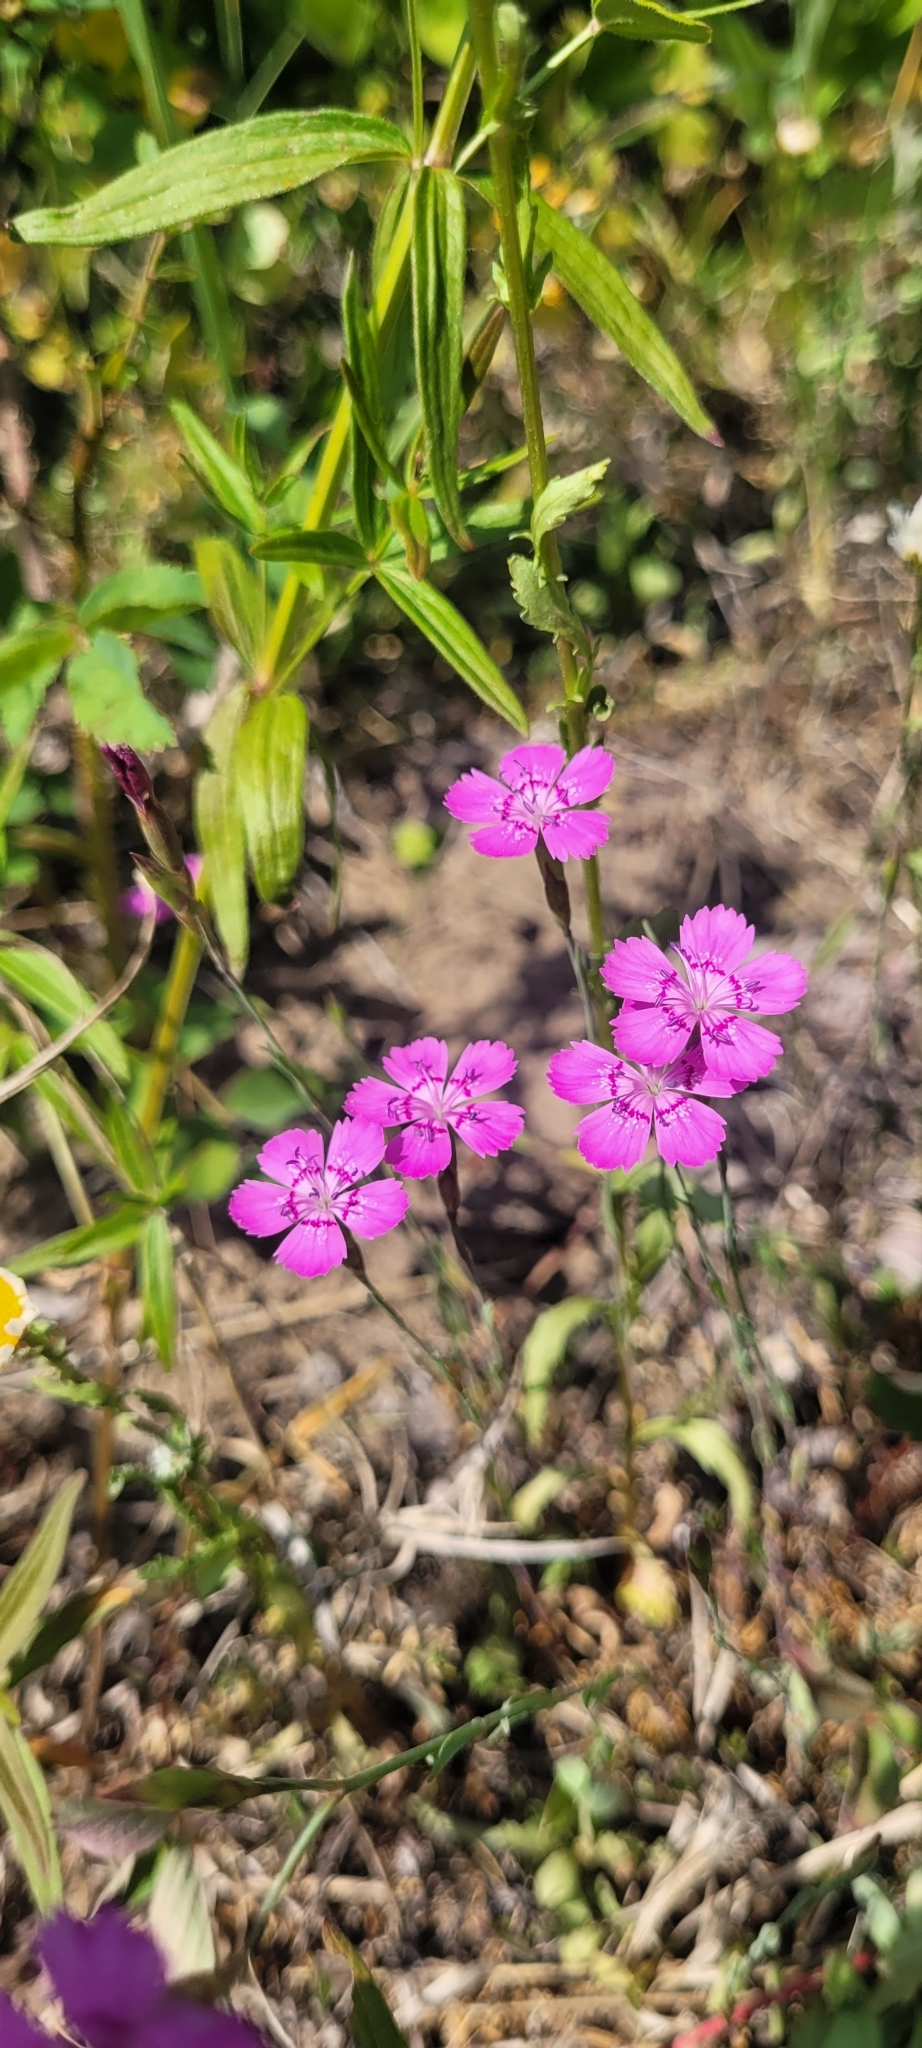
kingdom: Plantae
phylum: Tracheophyta
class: Magnoliopsida
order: Caryophyllales
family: Caryophyllaceae
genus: Dianthus
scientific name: Dianthus deltoides
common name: Maiden pink
